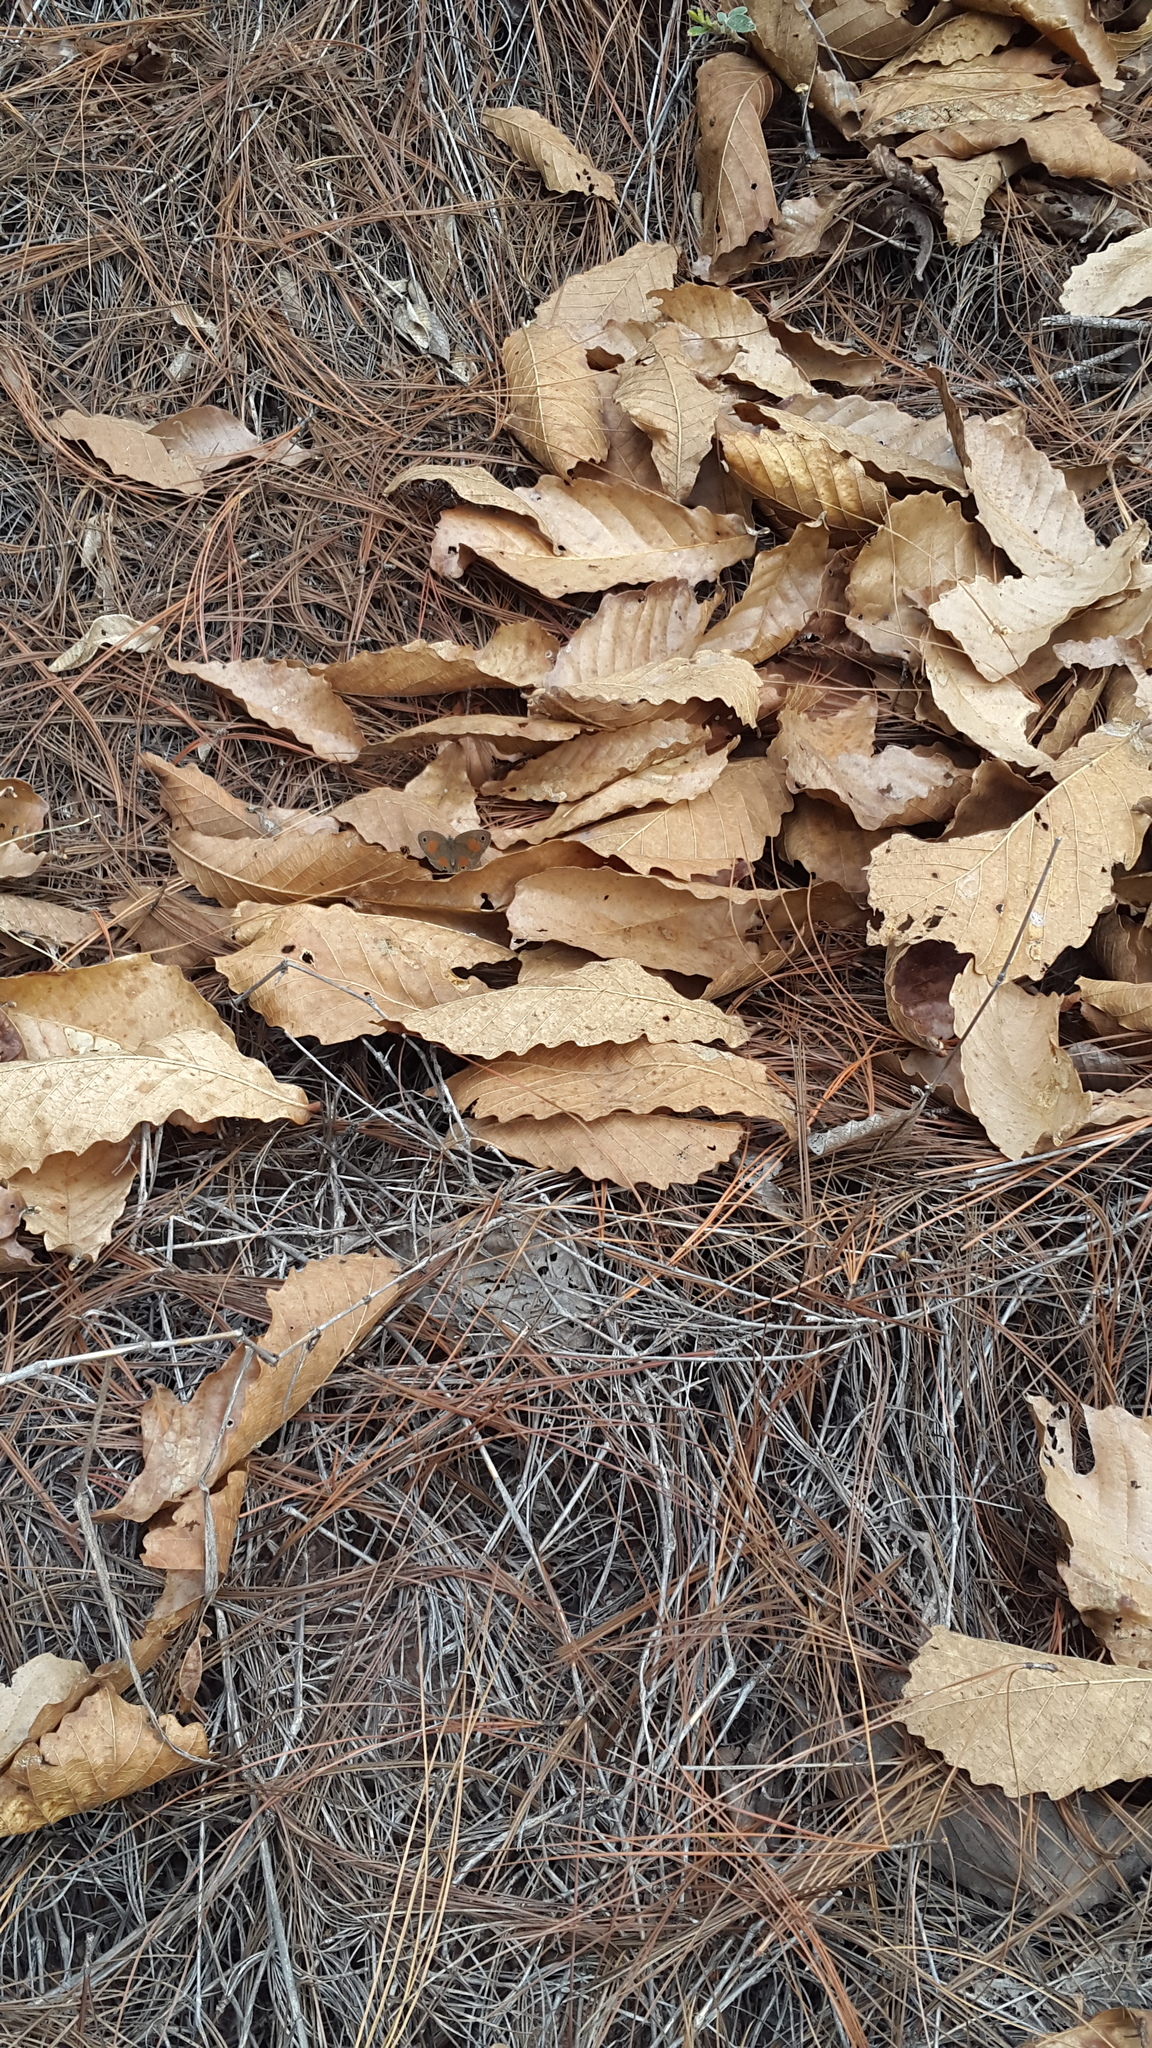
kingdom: Animalia
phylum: Arthropoda
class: Insecta
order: Lepidoptera
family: Nymphalidae
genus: Euptychia
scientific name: Euptychia
